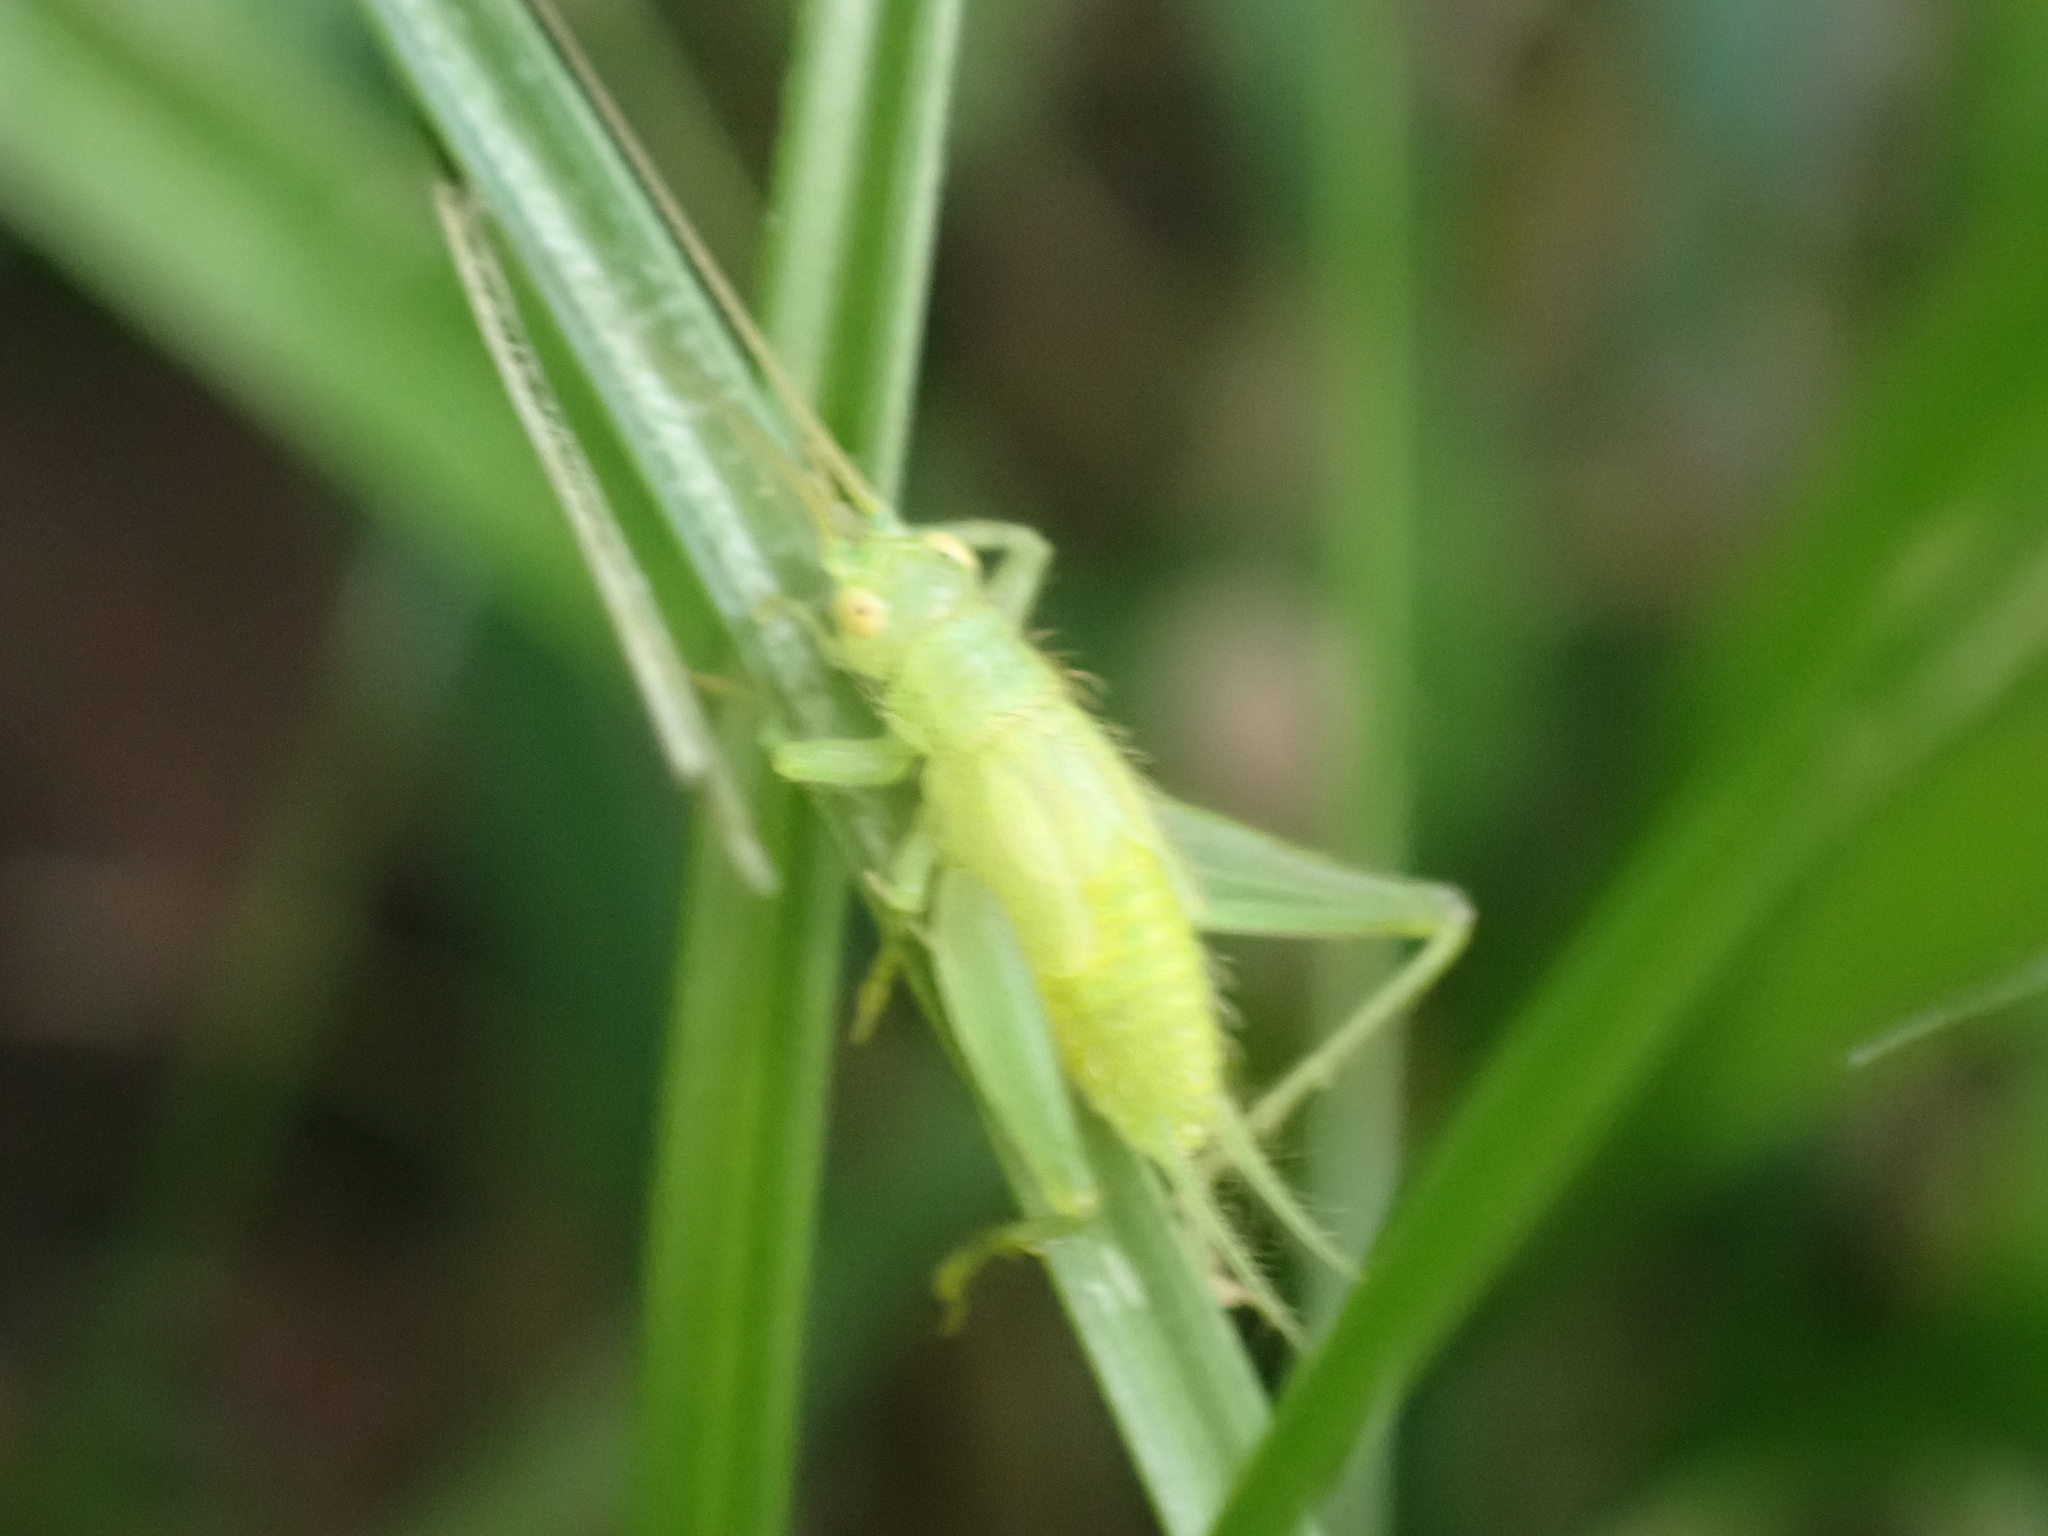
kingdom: Animalia
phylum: Arthropoda
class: Insecta
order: Orthoptera
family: Trigonidiidae
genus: Cyrtoxipha
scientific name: Cyrtoxipha columbiana
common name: Columbian trig
